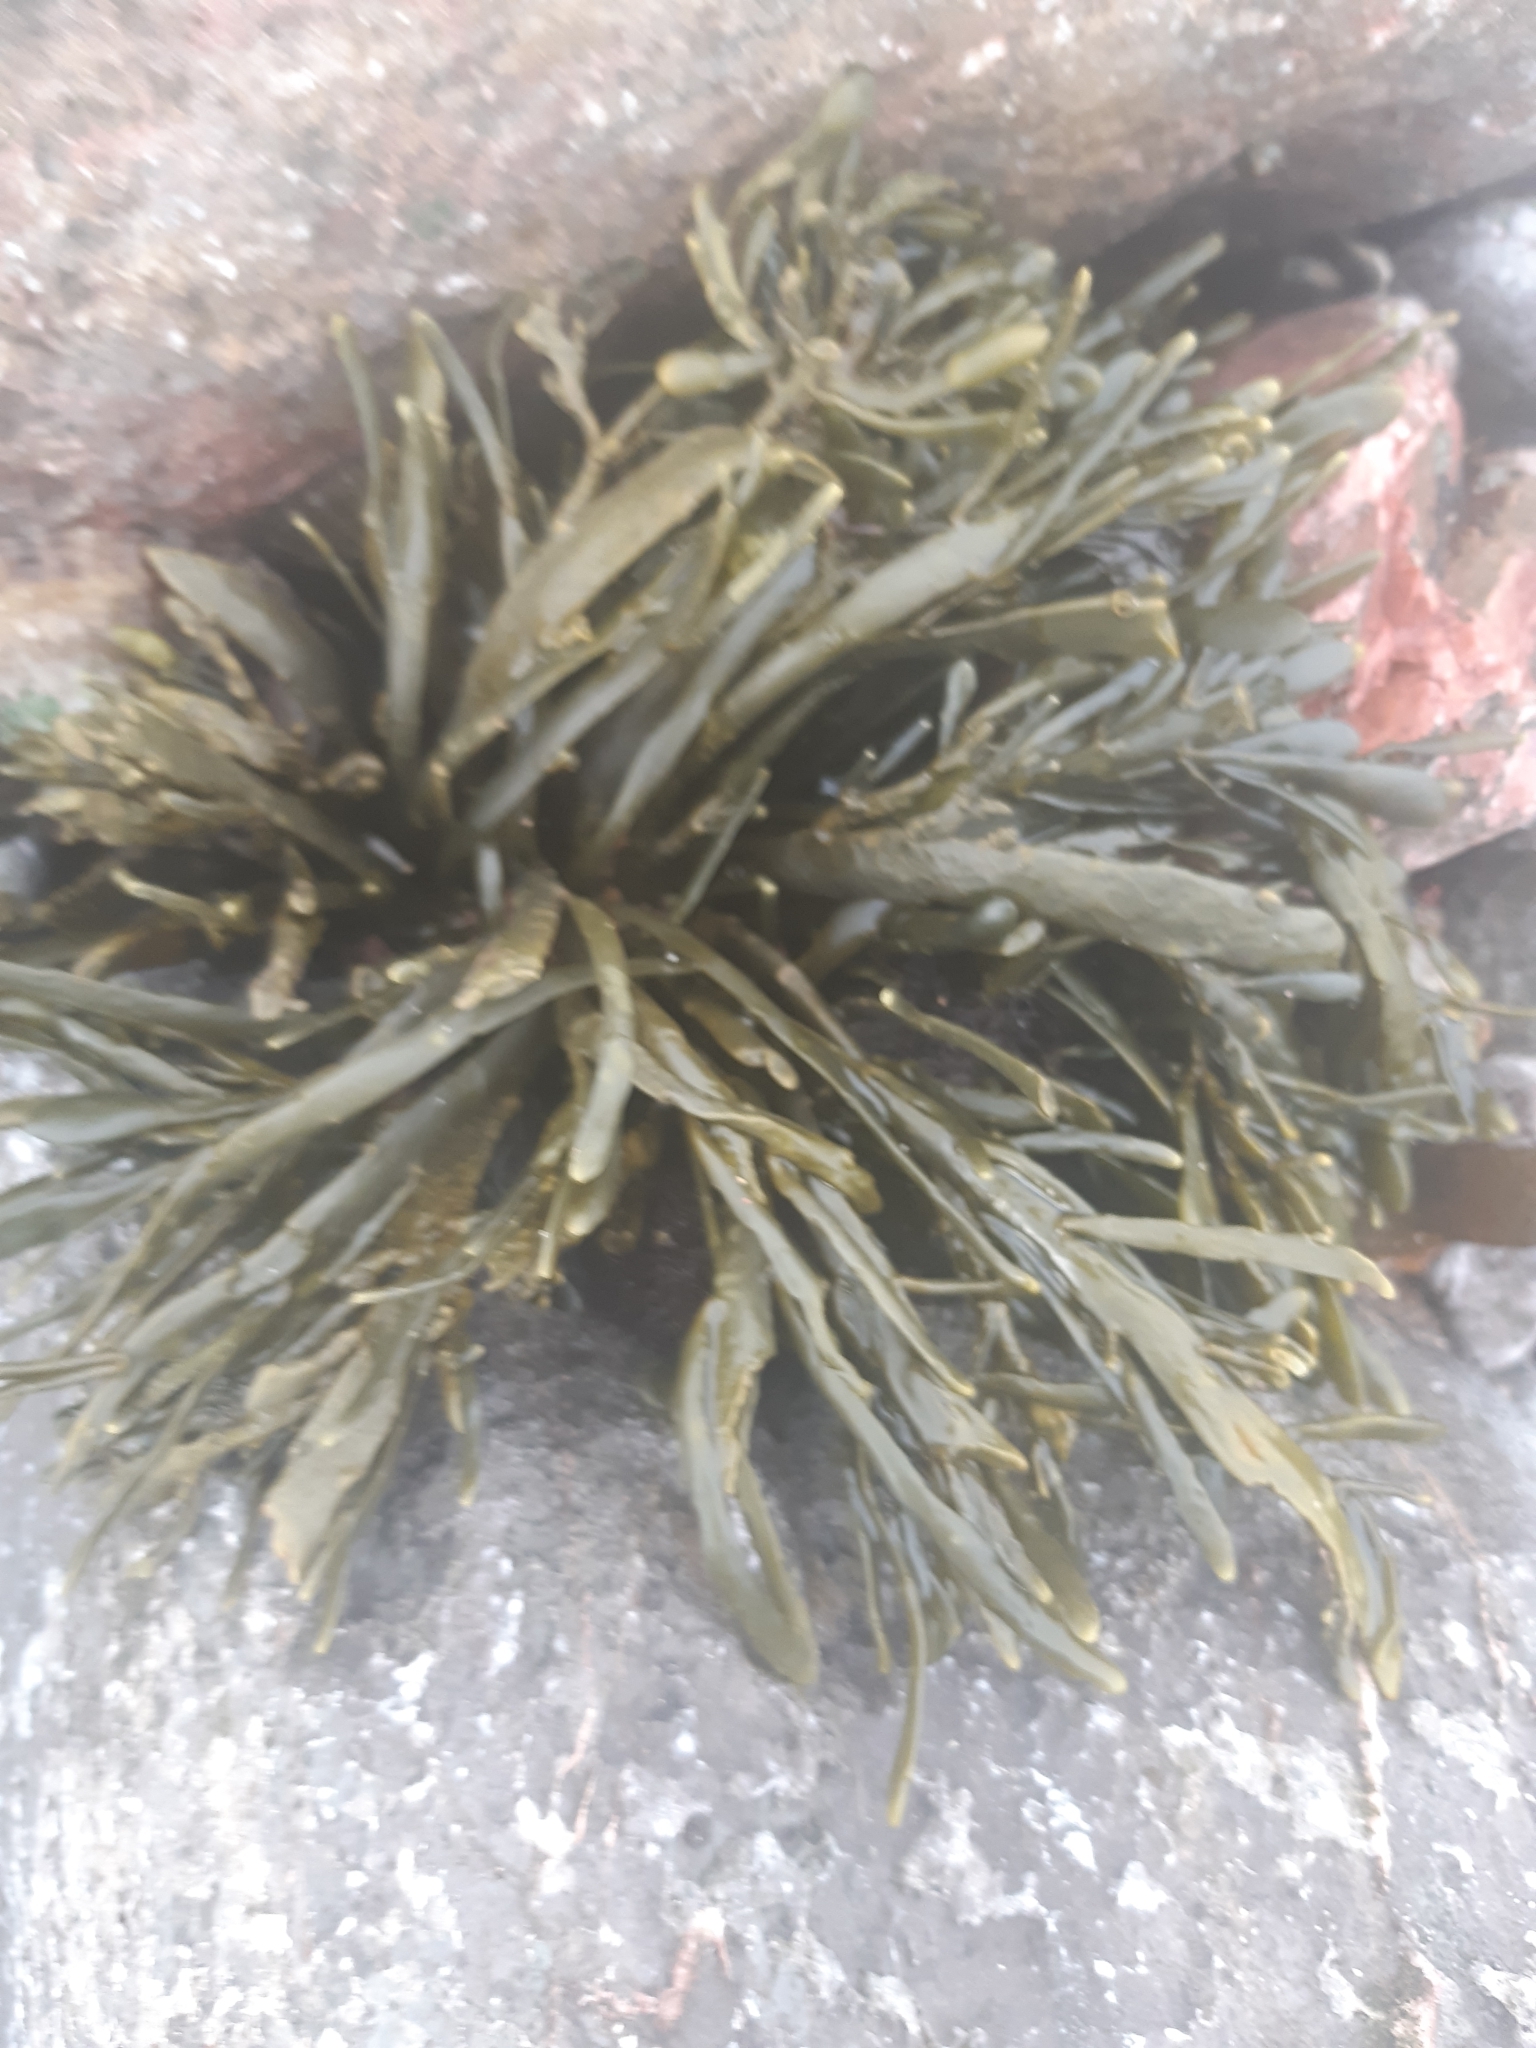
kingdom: Chromista
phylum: Ochrophyta
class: Phaeophyceae
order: Fucales
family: Fucaceae
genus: Ascophyllum
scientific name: Ascophyllum nodosum
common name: Knotted wrack
